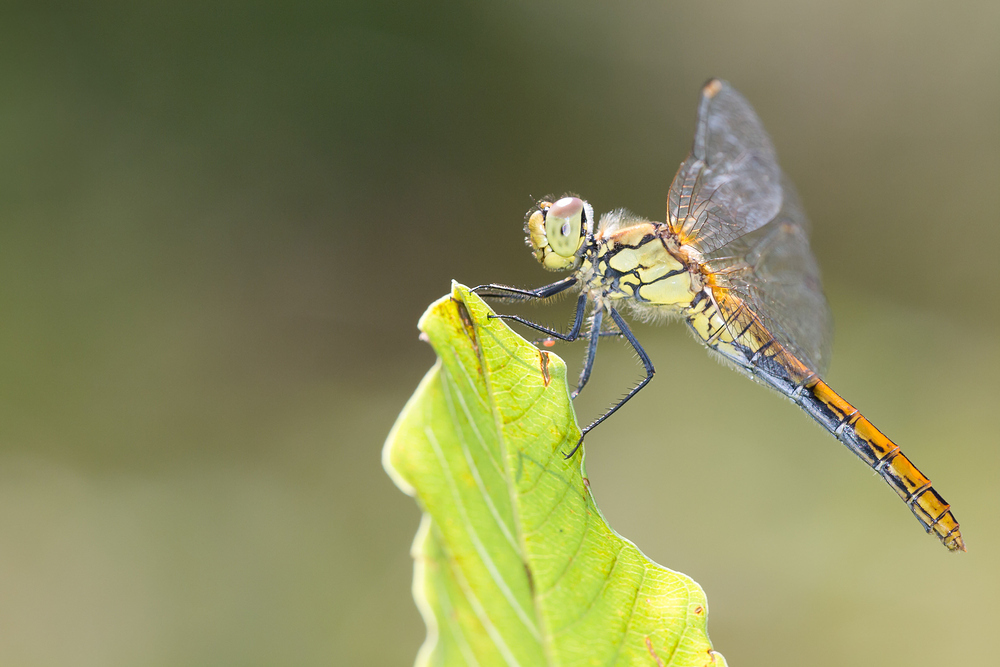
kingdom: Animalia
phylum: Arthropoda
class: Insecta
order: Odonata
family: Libellulidae
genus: Sympetrum
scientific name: Sympetrum sanguineum
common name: Ruddy darter
